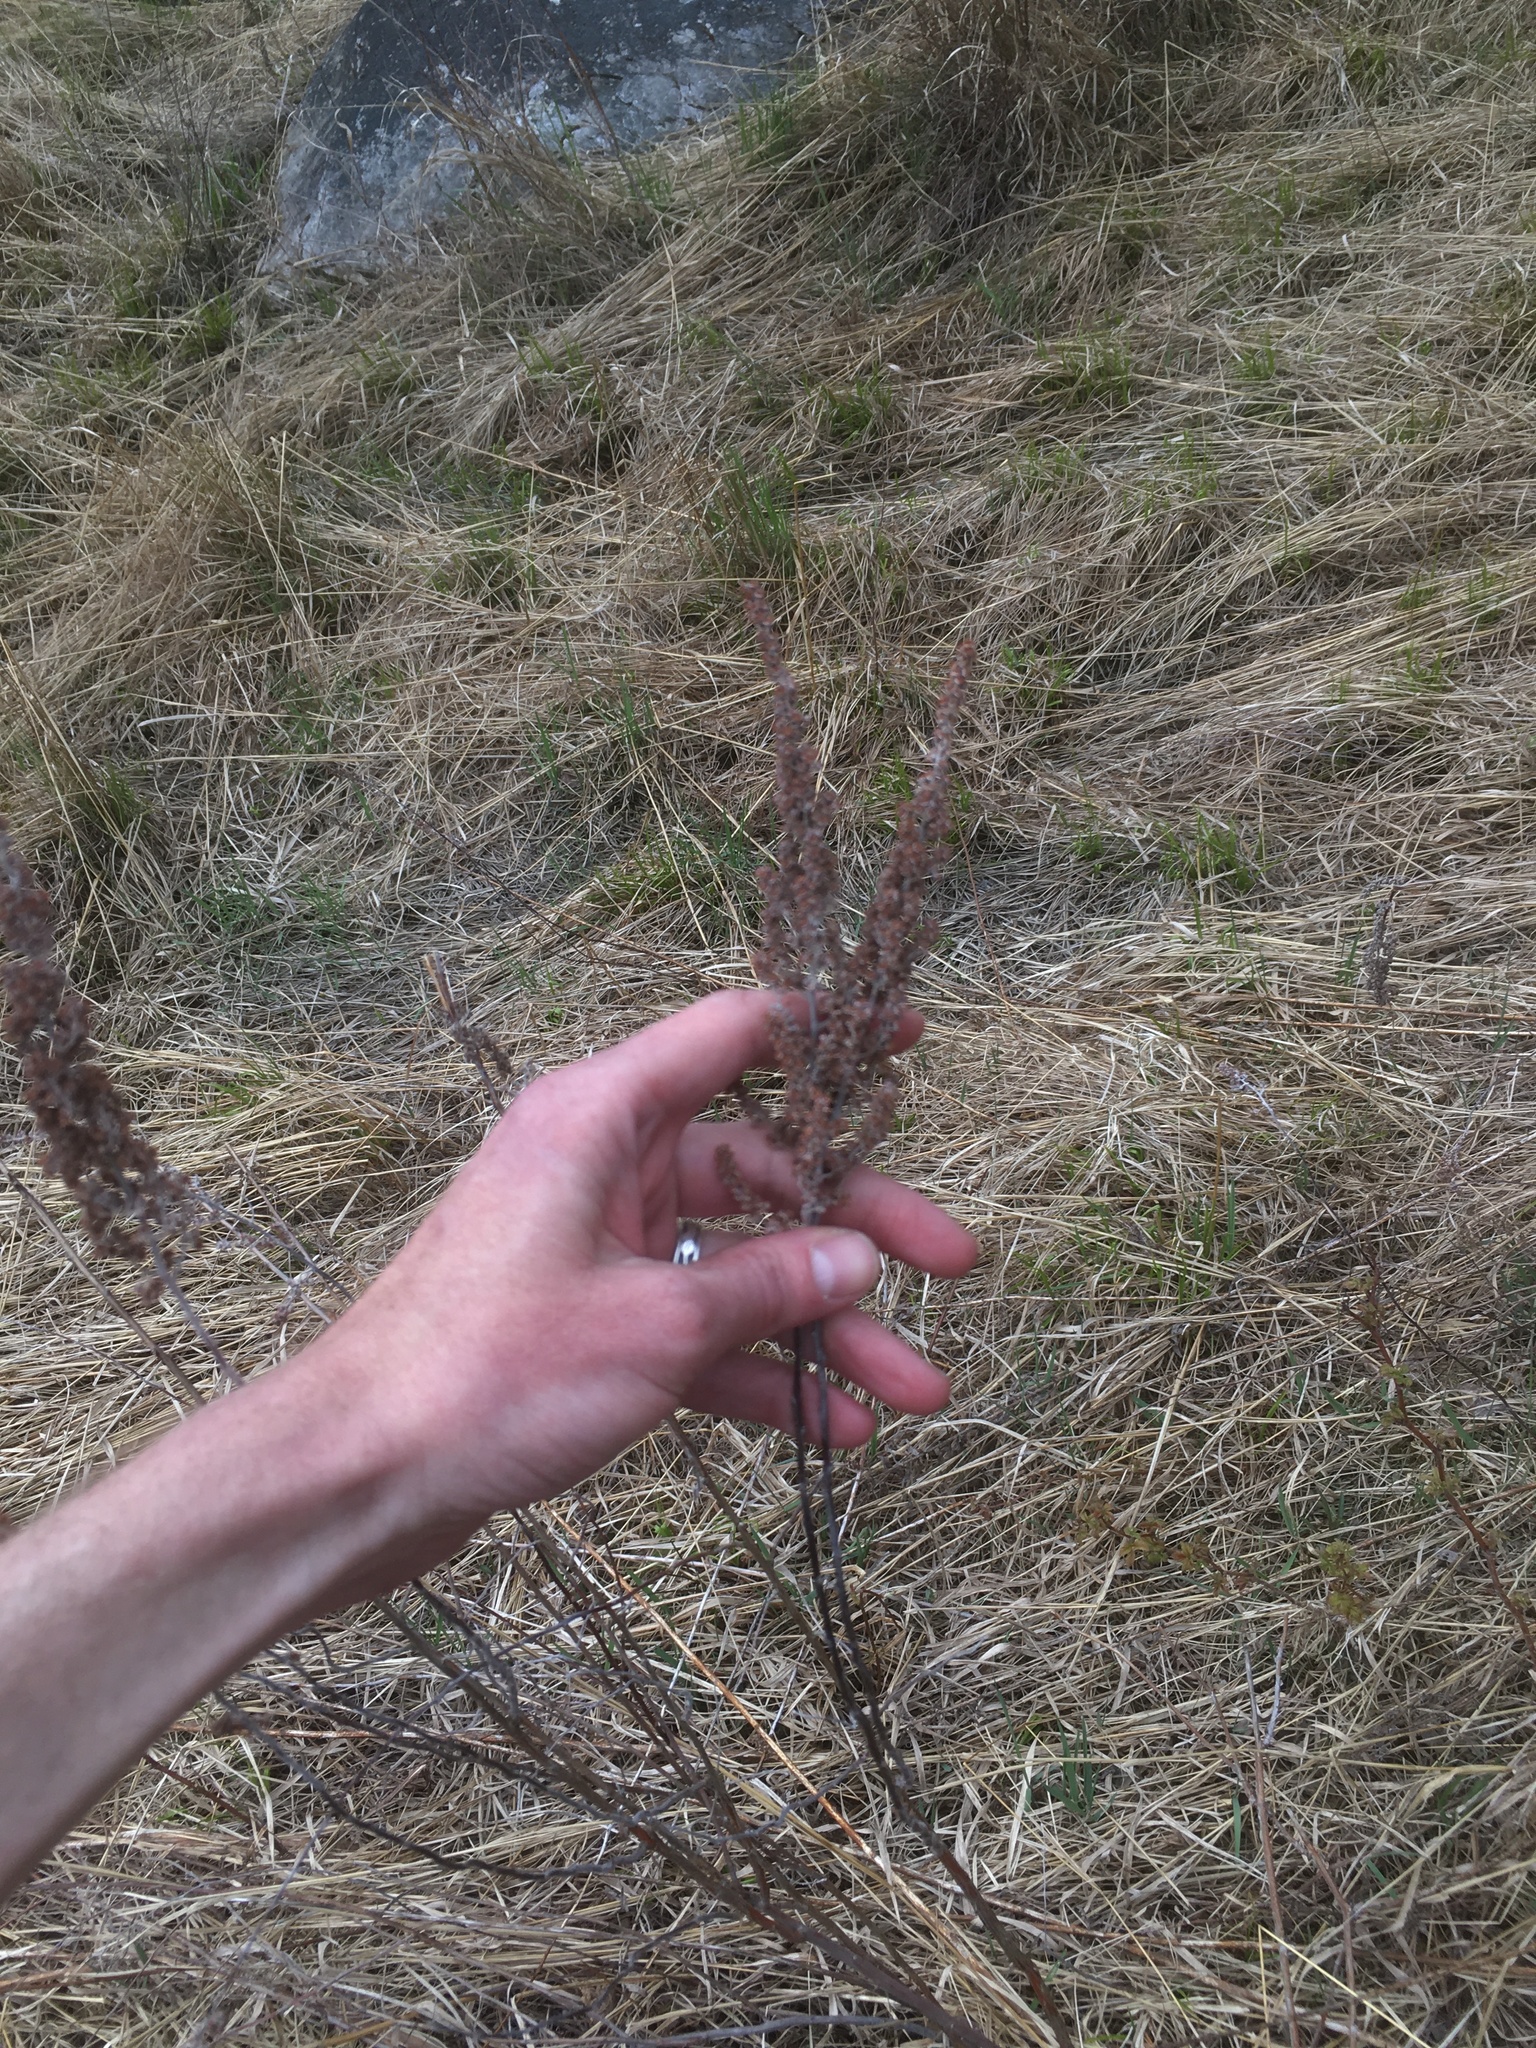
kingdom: Plantae
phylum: Tracheophyta
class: Magnoliopsida
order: Rosales
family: Rosaceae
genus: Spiraea
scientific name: Spiraea tomentosa
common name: Hardhack
